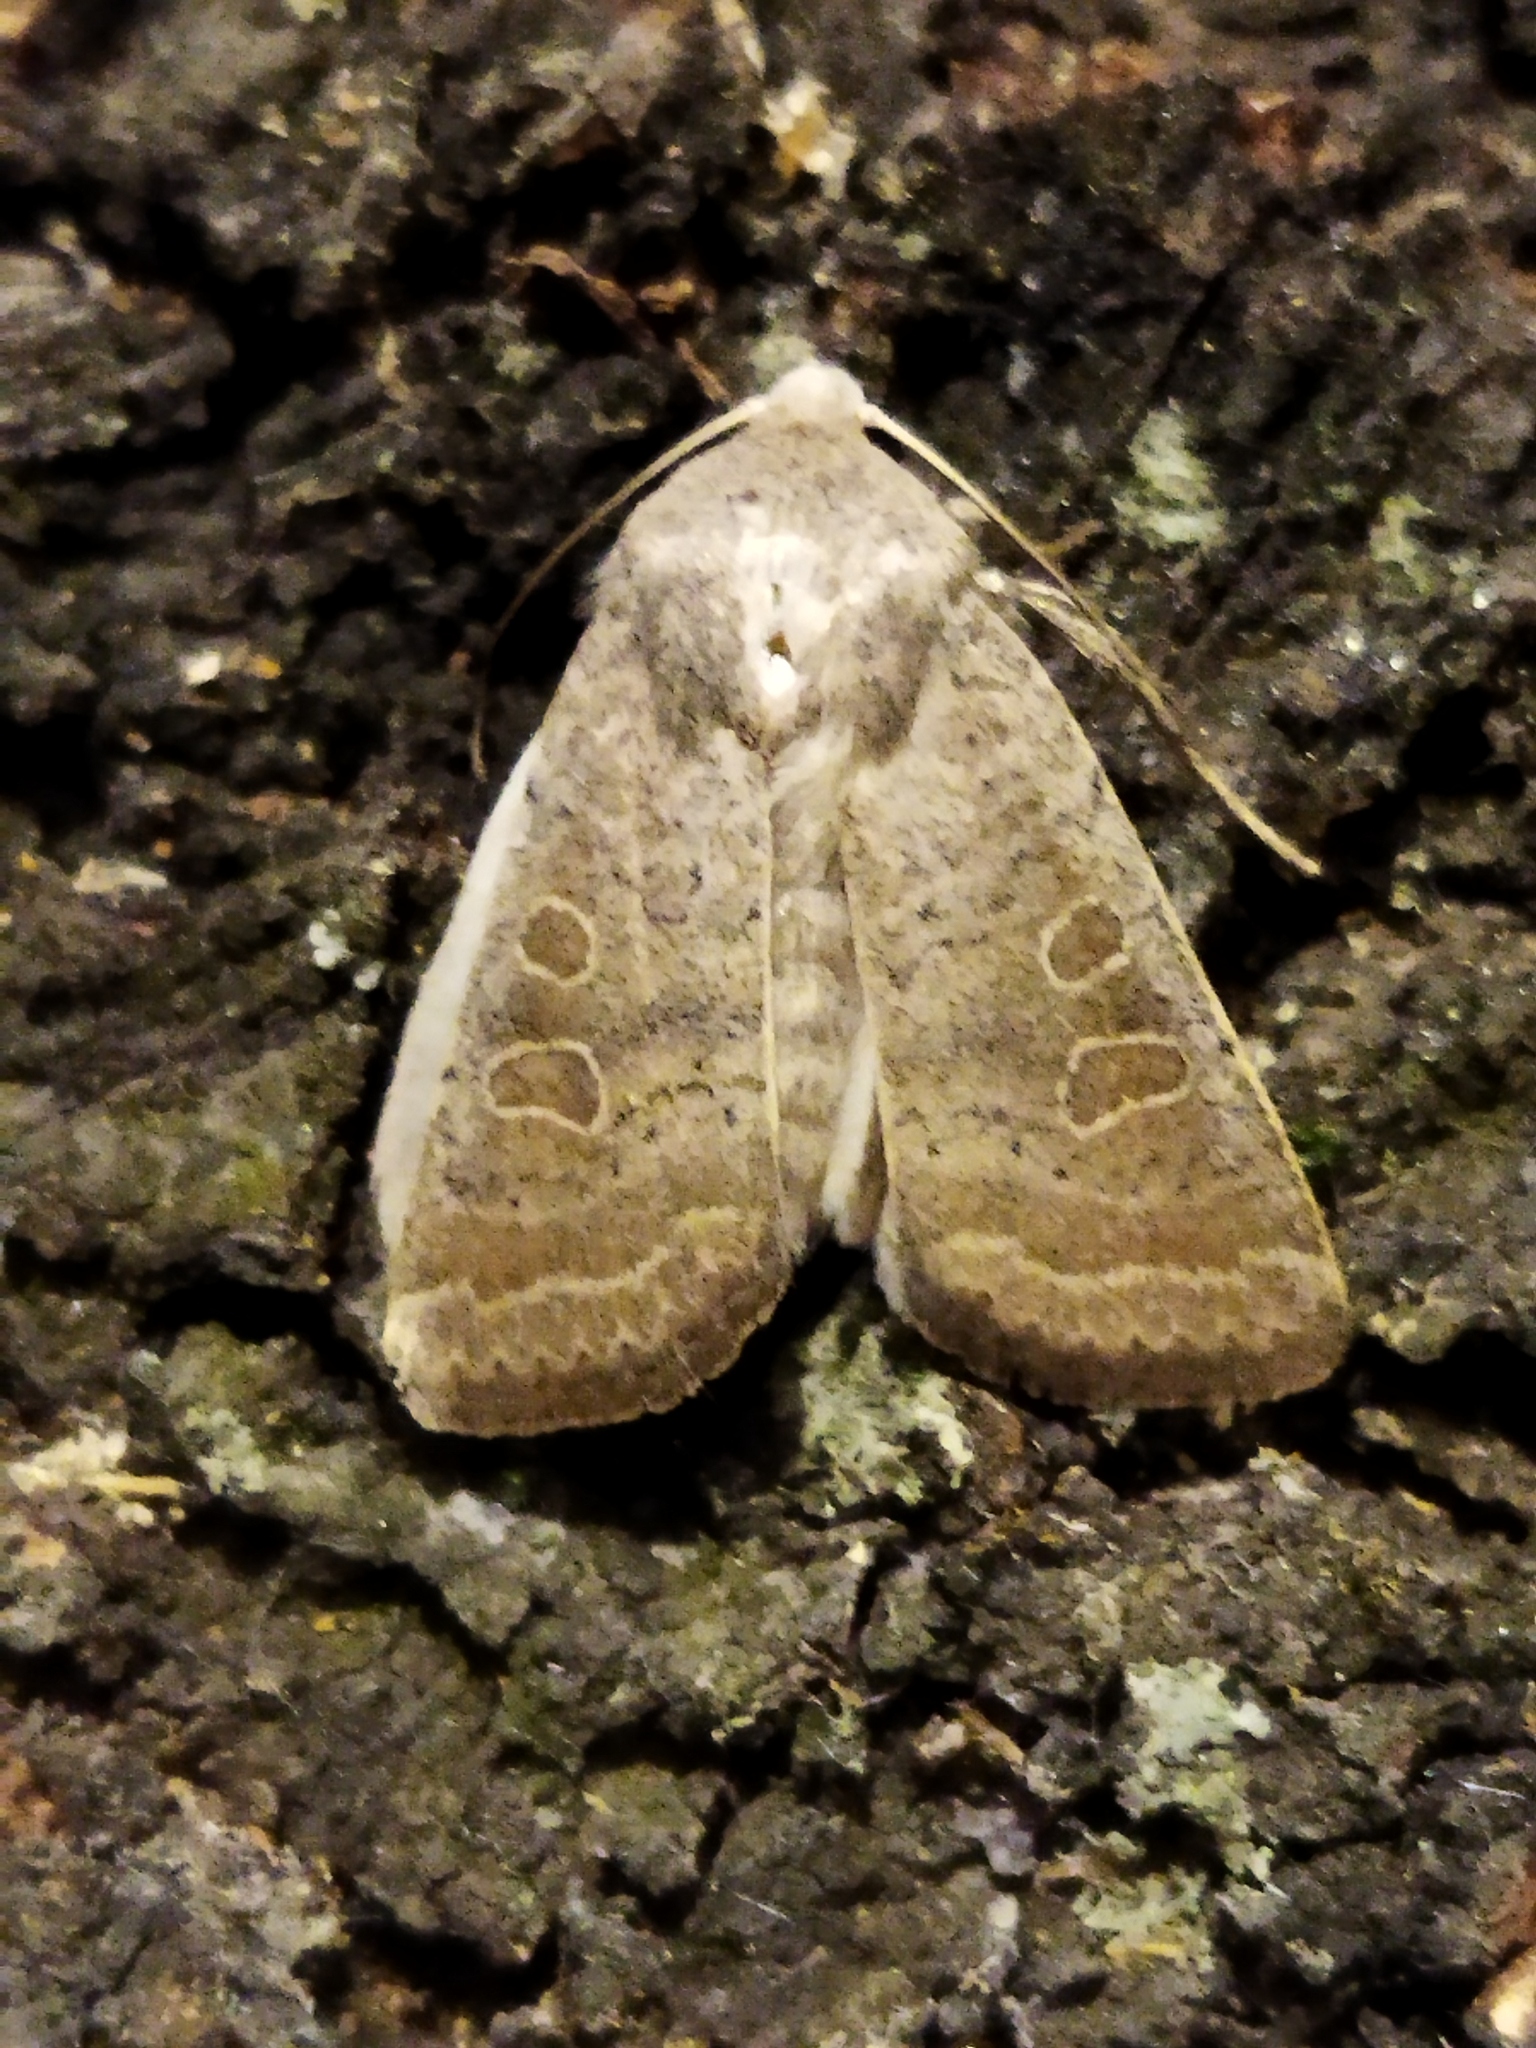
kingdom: Animalia
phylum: Arthropoda
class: Insecta
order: Lepidoptera
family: Noctuidae
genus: Hoplodrina
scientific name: Hoplodrina ambigua
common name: Vine's rustic
